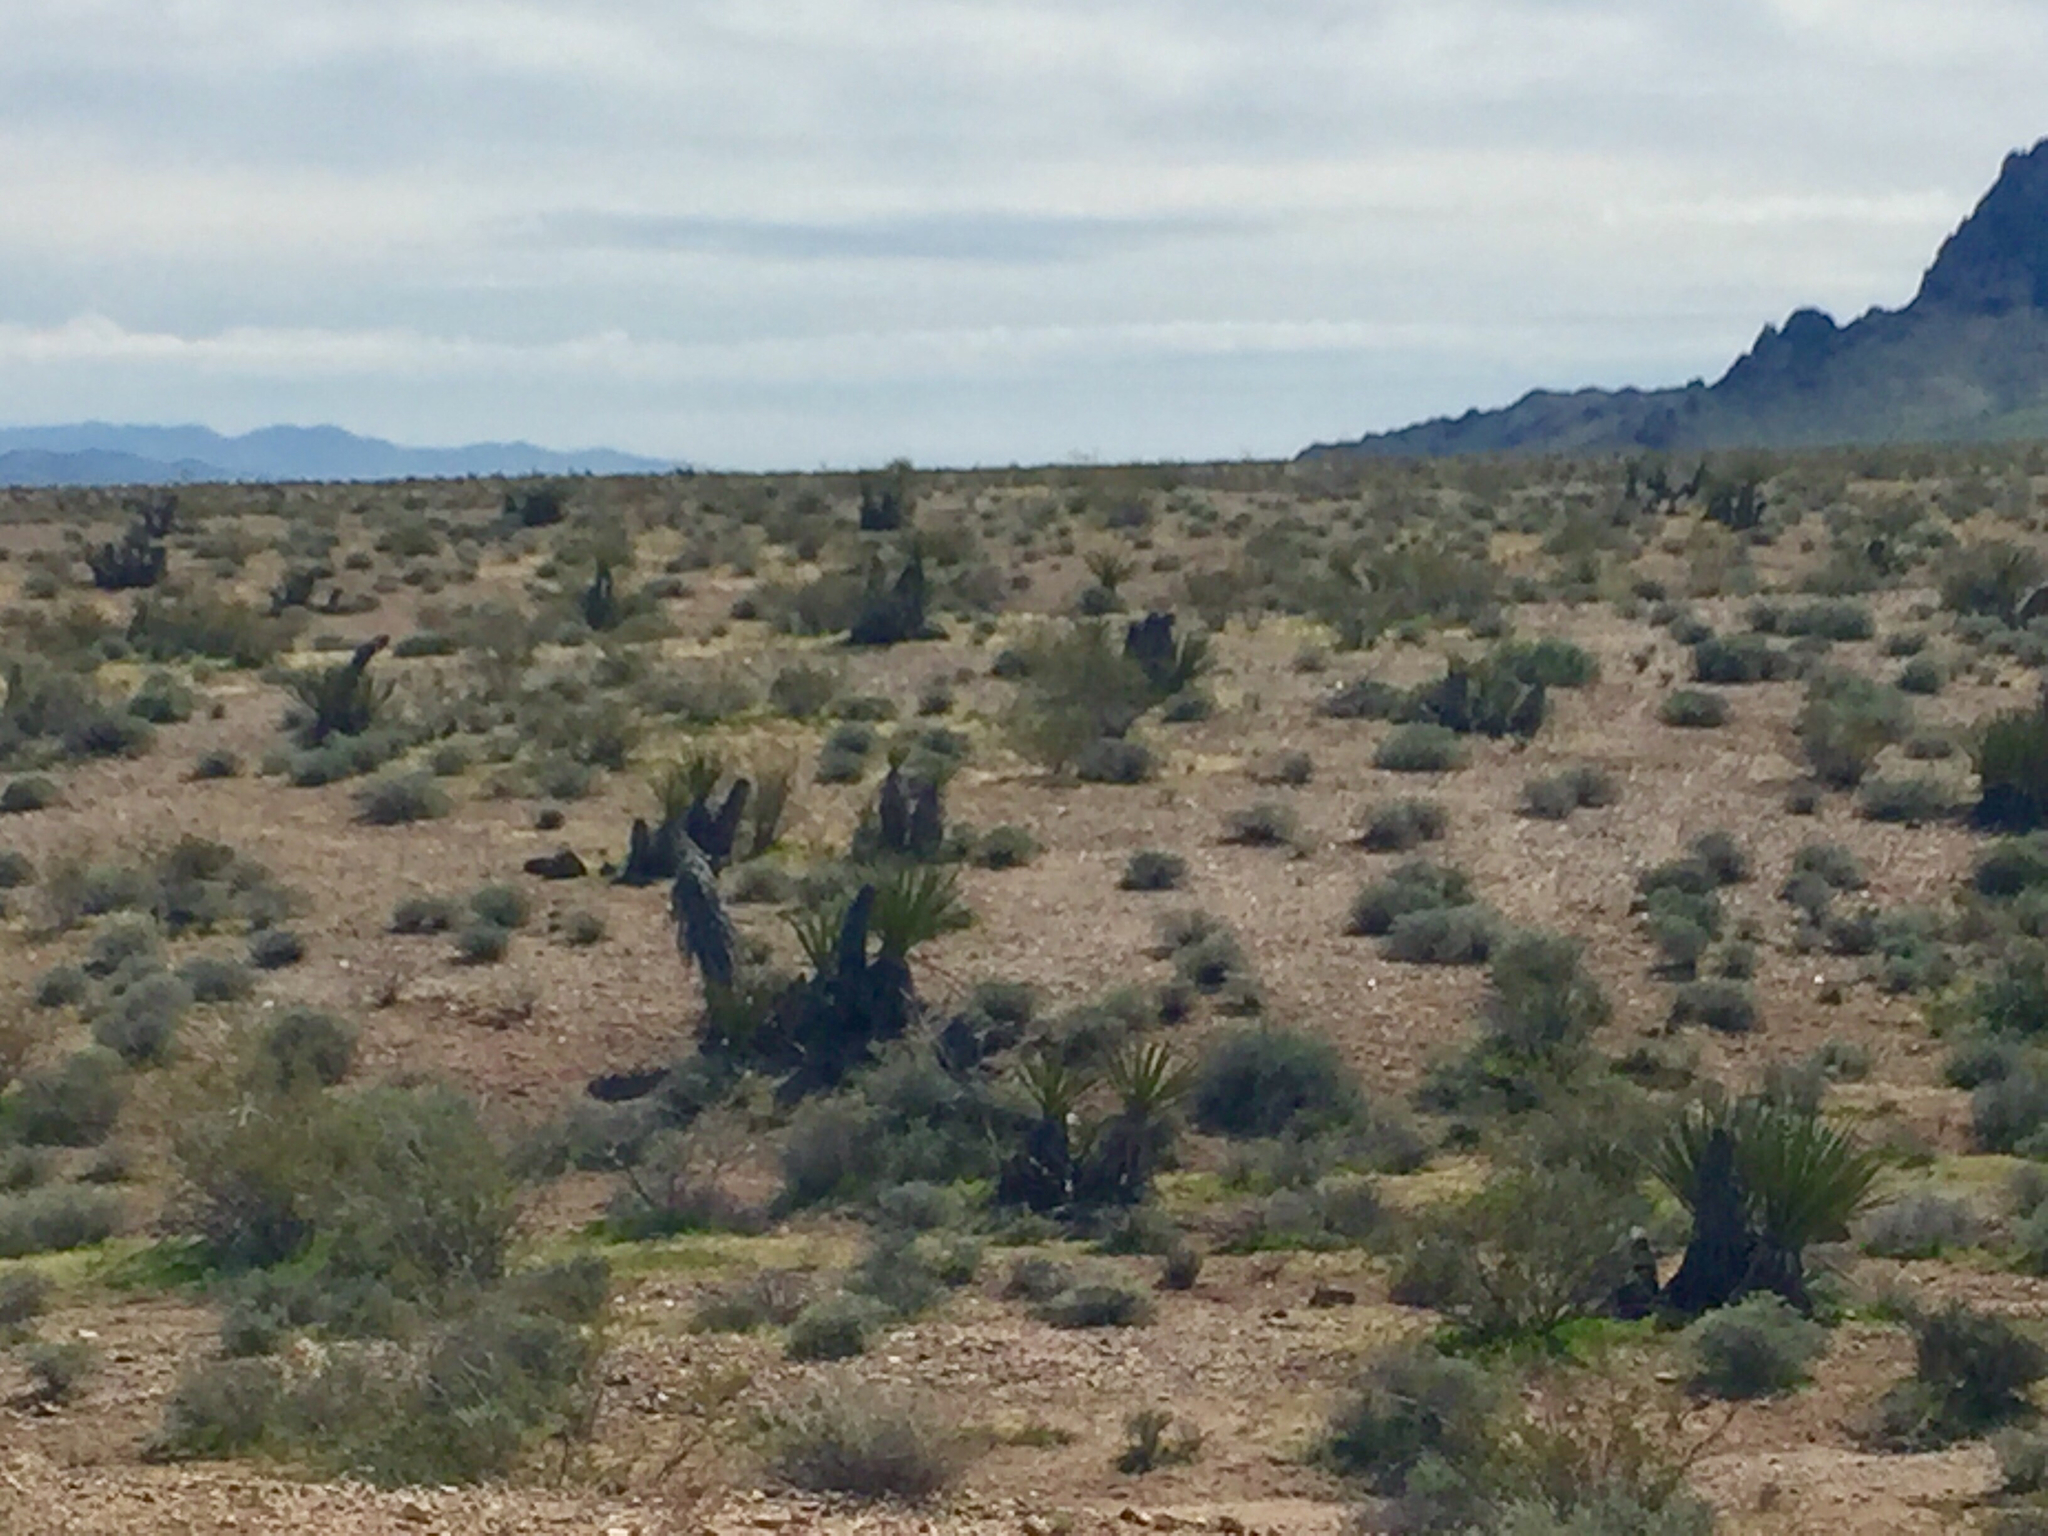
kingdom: Plantae
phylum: Tracheophyta
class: Liliopsida
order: Asparagales
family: Asparagaceae
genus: Yucca
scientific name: Yucca schidigera
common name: Mojave yucca
